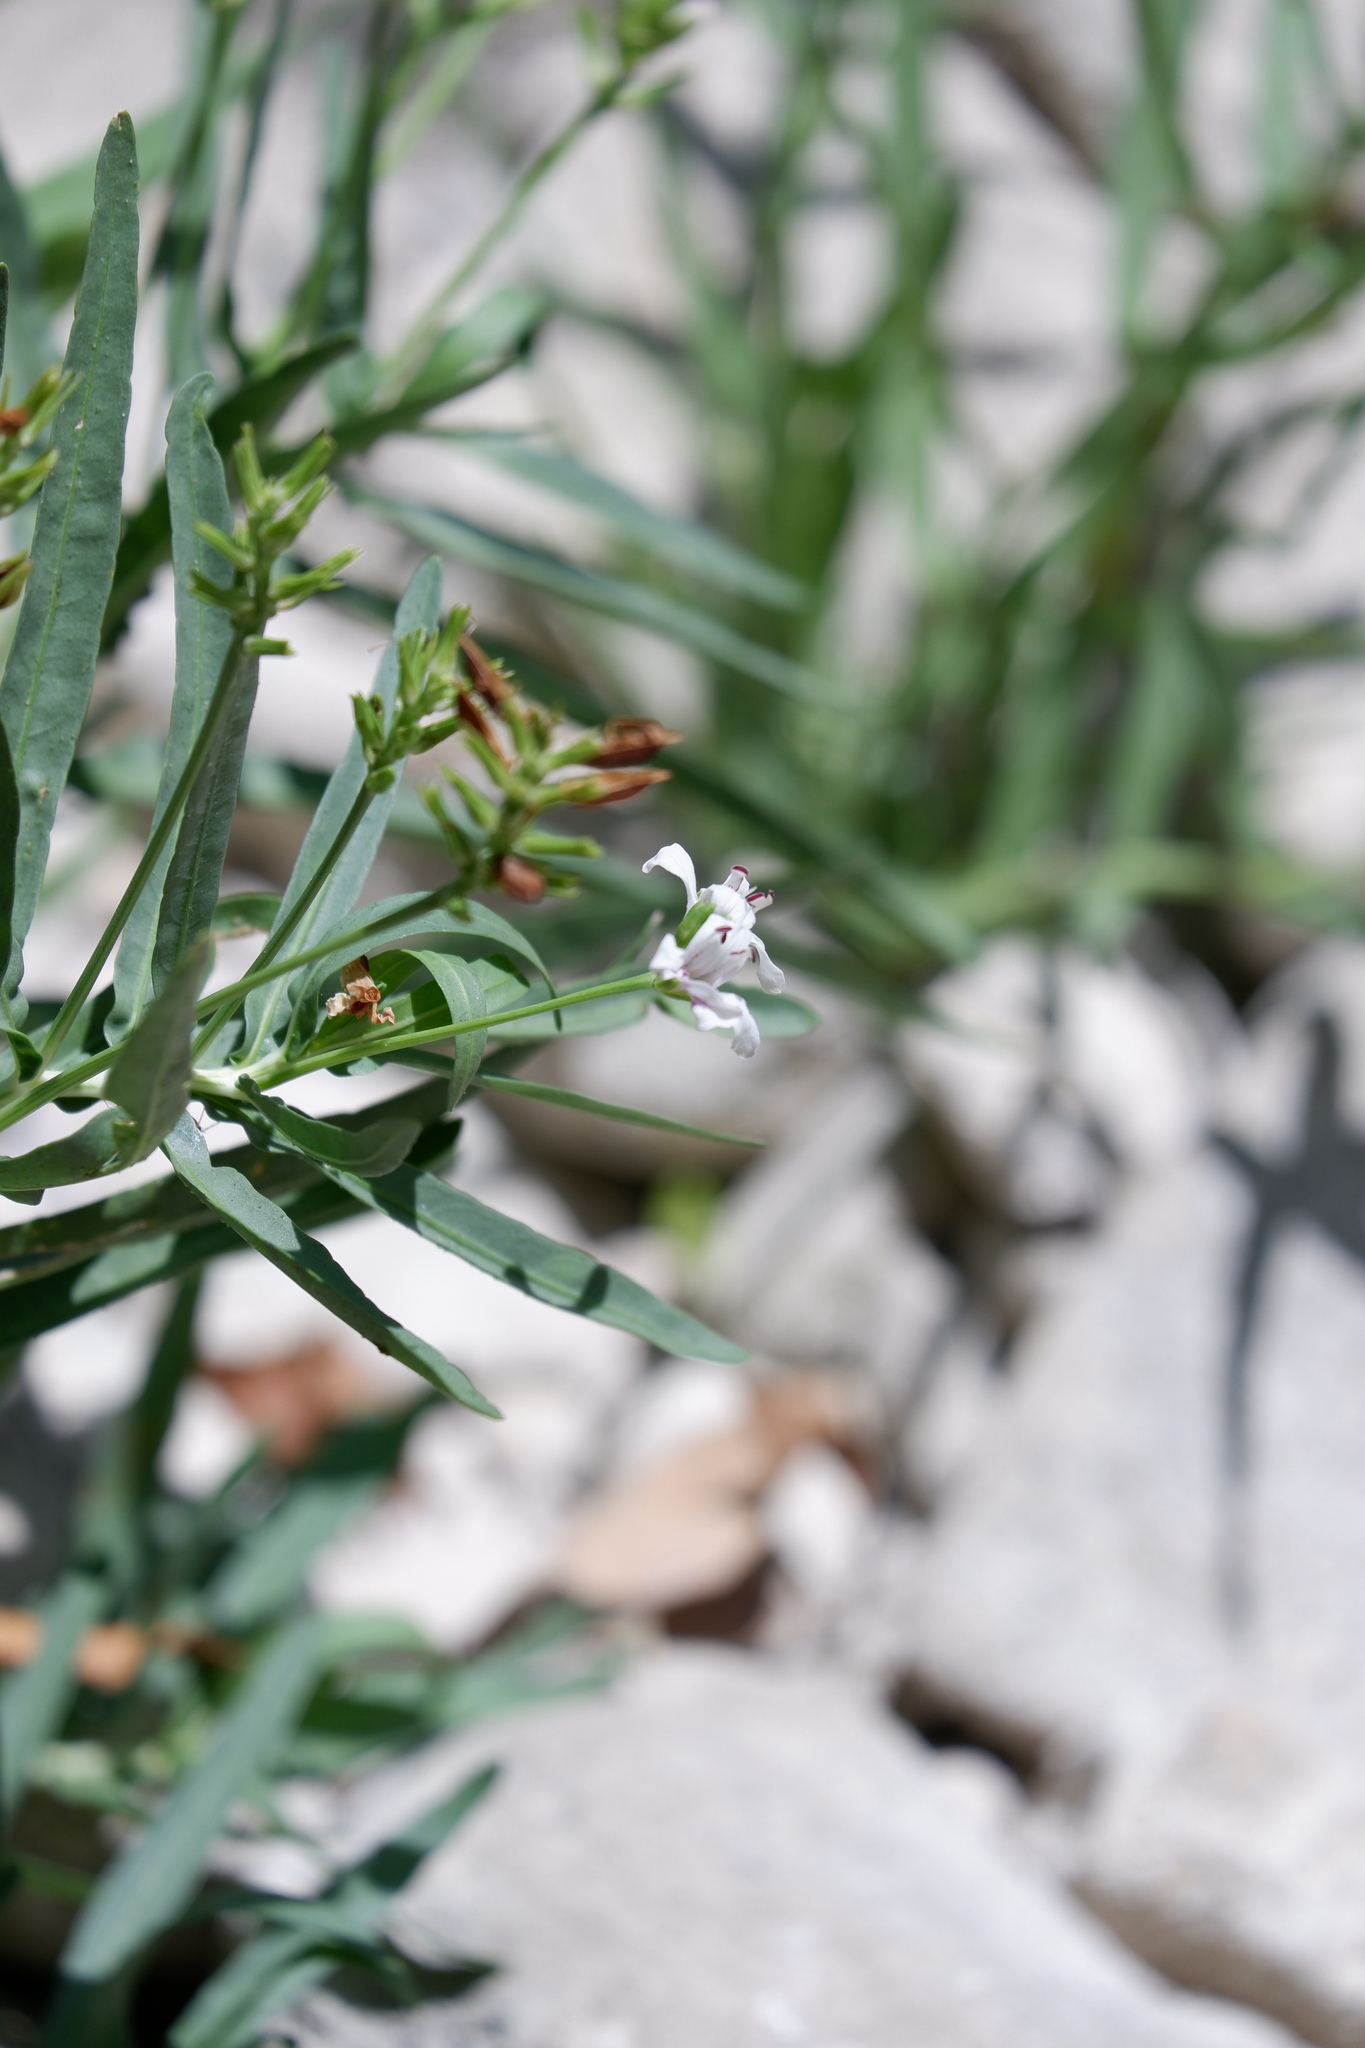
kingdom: Plantae
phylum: Tracheophyta
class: Magnoliopsida
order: Lamiales
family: Acanthaceae
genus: Dianthera
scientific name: Dianthera americana
